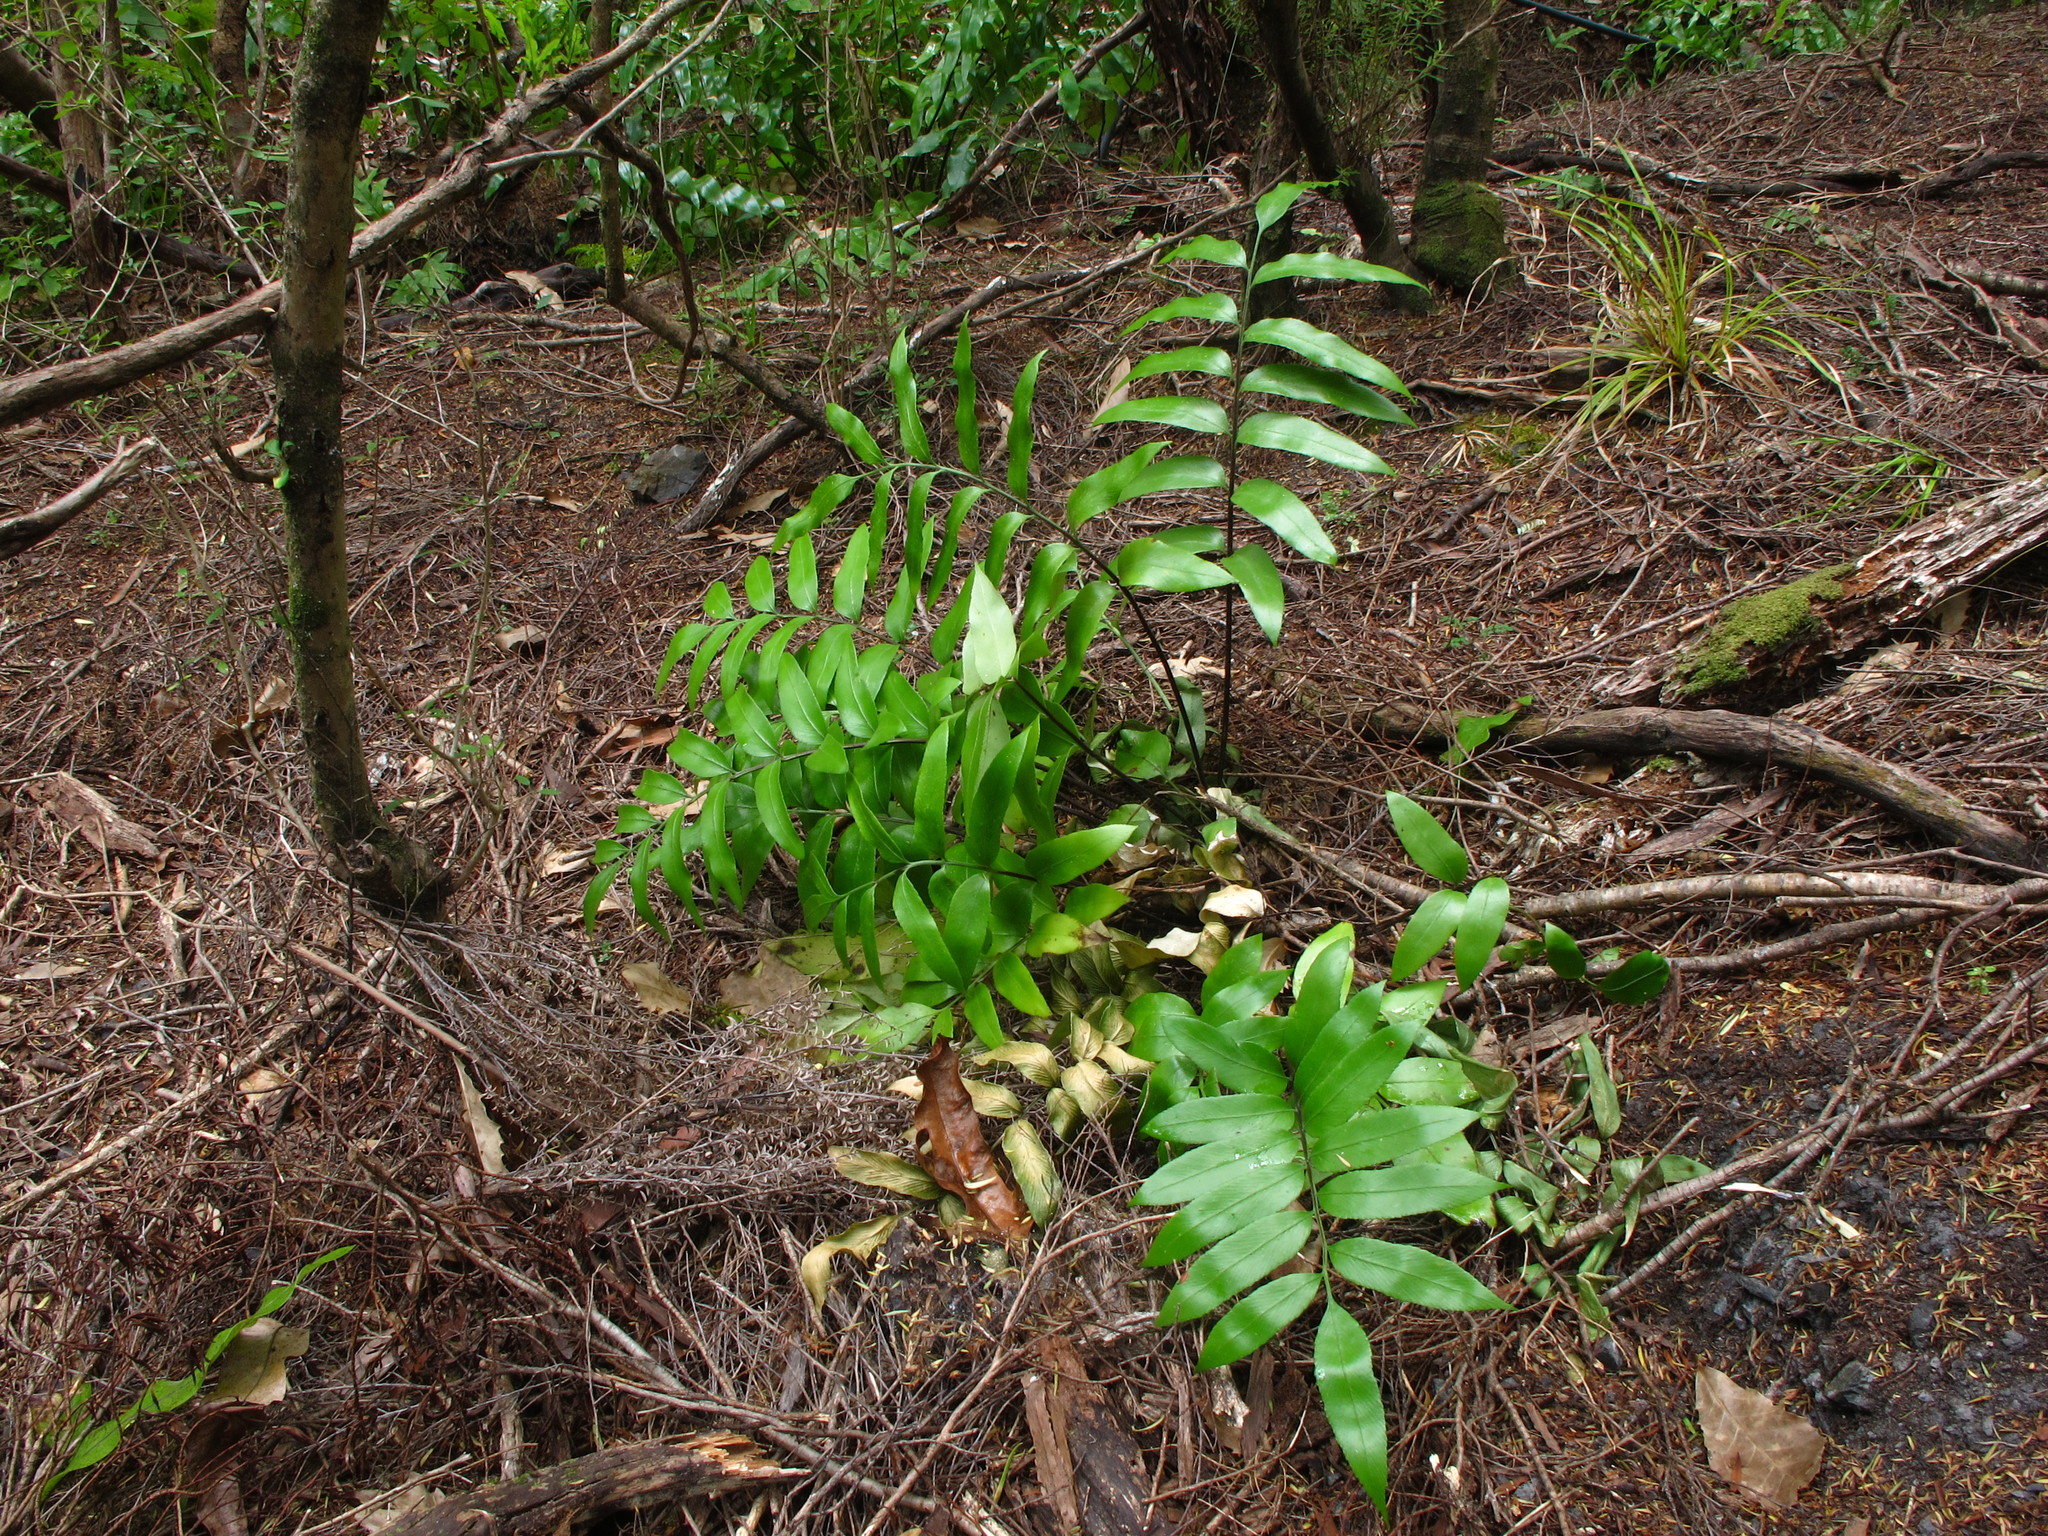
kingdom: Plantae
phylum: Tracheophyta
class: Polypodiopsida
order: Polypodiales
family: Aspleniaceae
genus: Asplenium
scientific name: Asplenium oblongifolium
